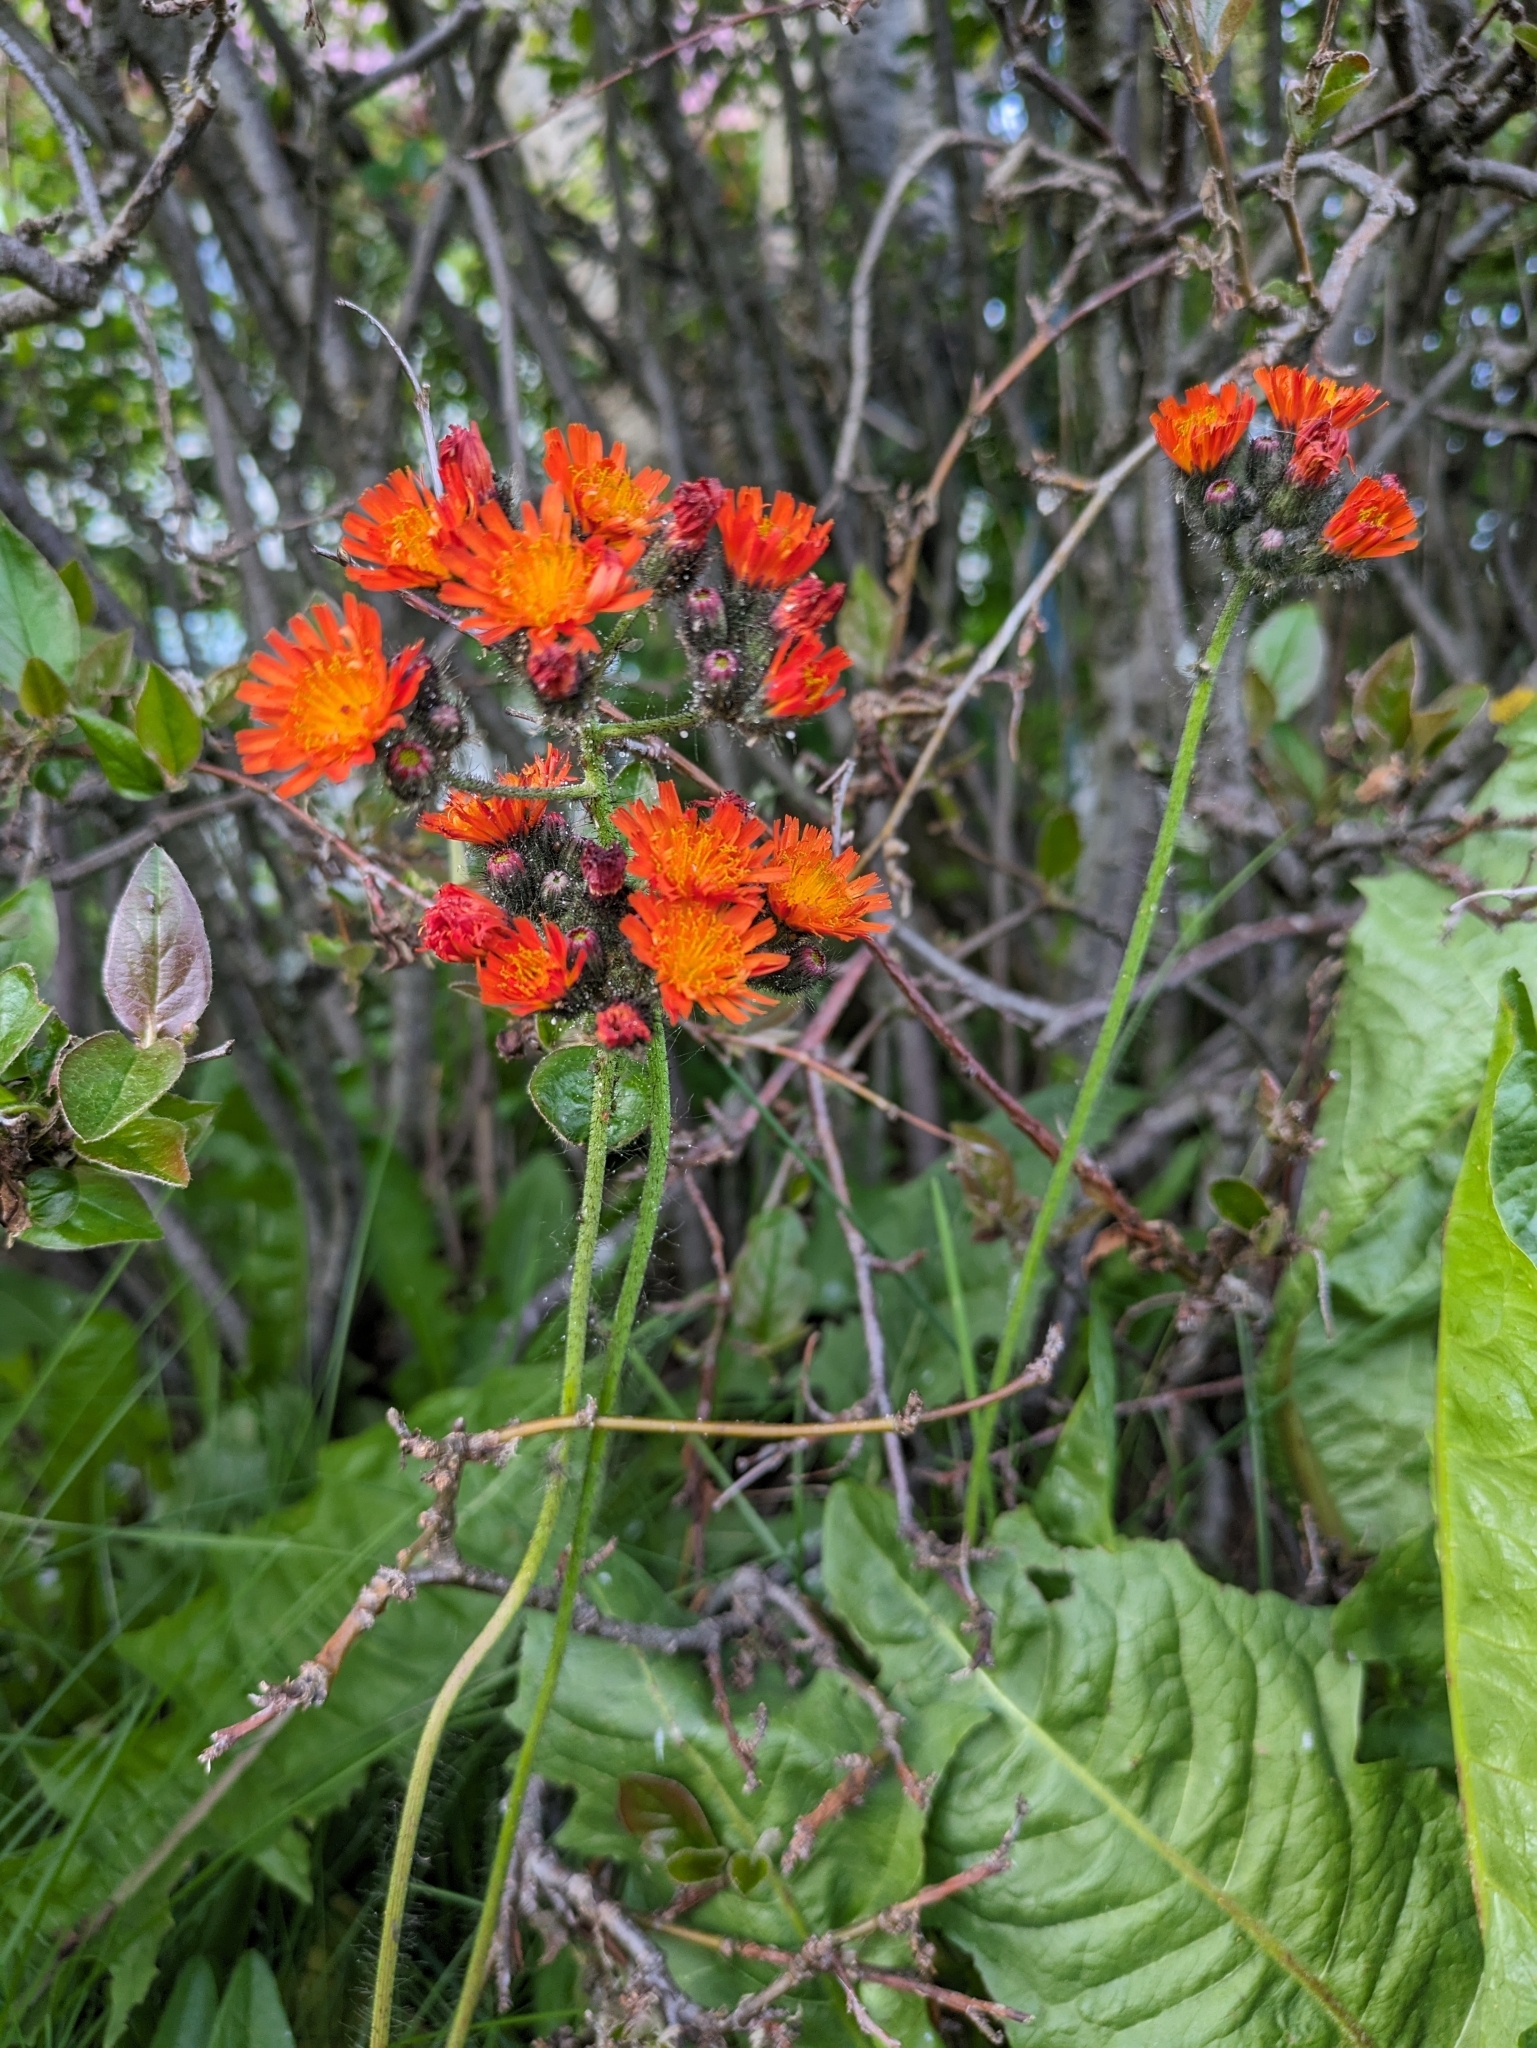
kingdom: Plantae
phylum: Tracheophyta
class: Magnoliopsida
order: Asterales
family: Asteraceae
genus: Pilosella
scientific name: Pilosella aurantiaca
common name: Fox-and-cubs
